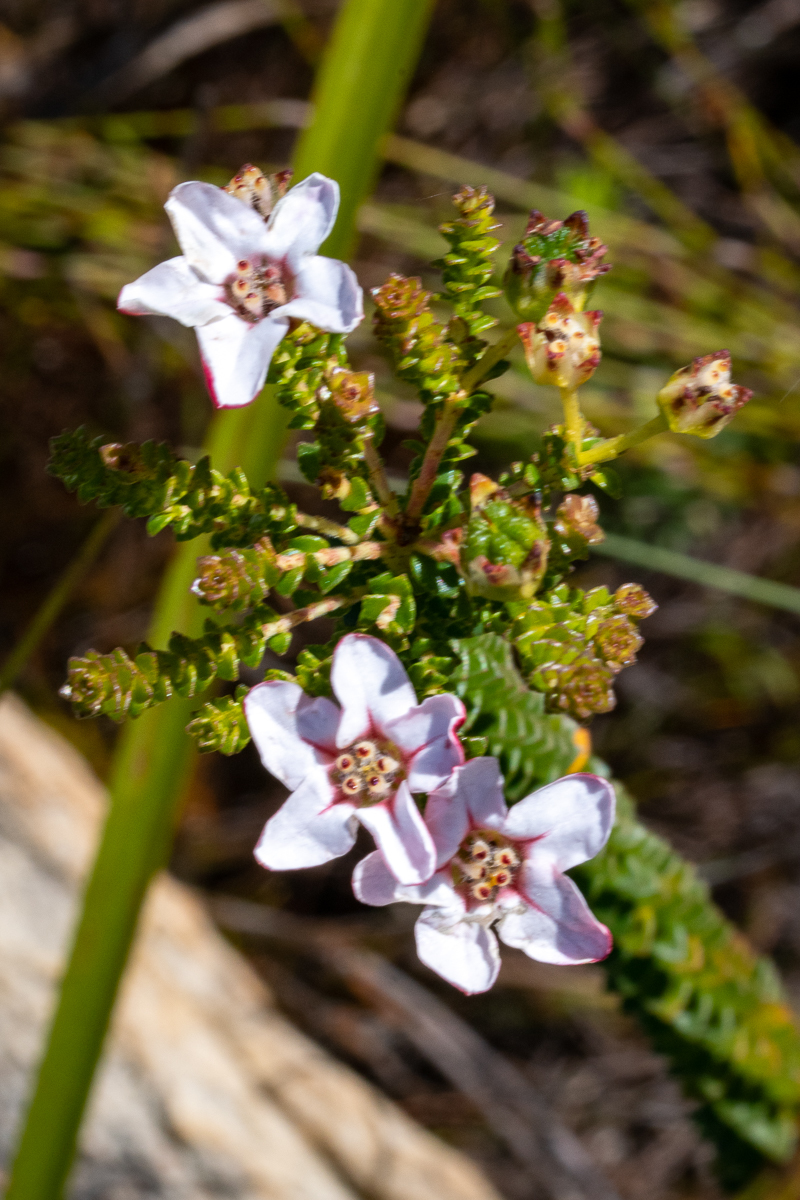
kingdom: Plantae
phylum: Tracheophyta
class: Magnoliopsida
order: Sapindales
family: Rutaceae
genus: Adenandra
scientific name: Adenandra brachyphylla
